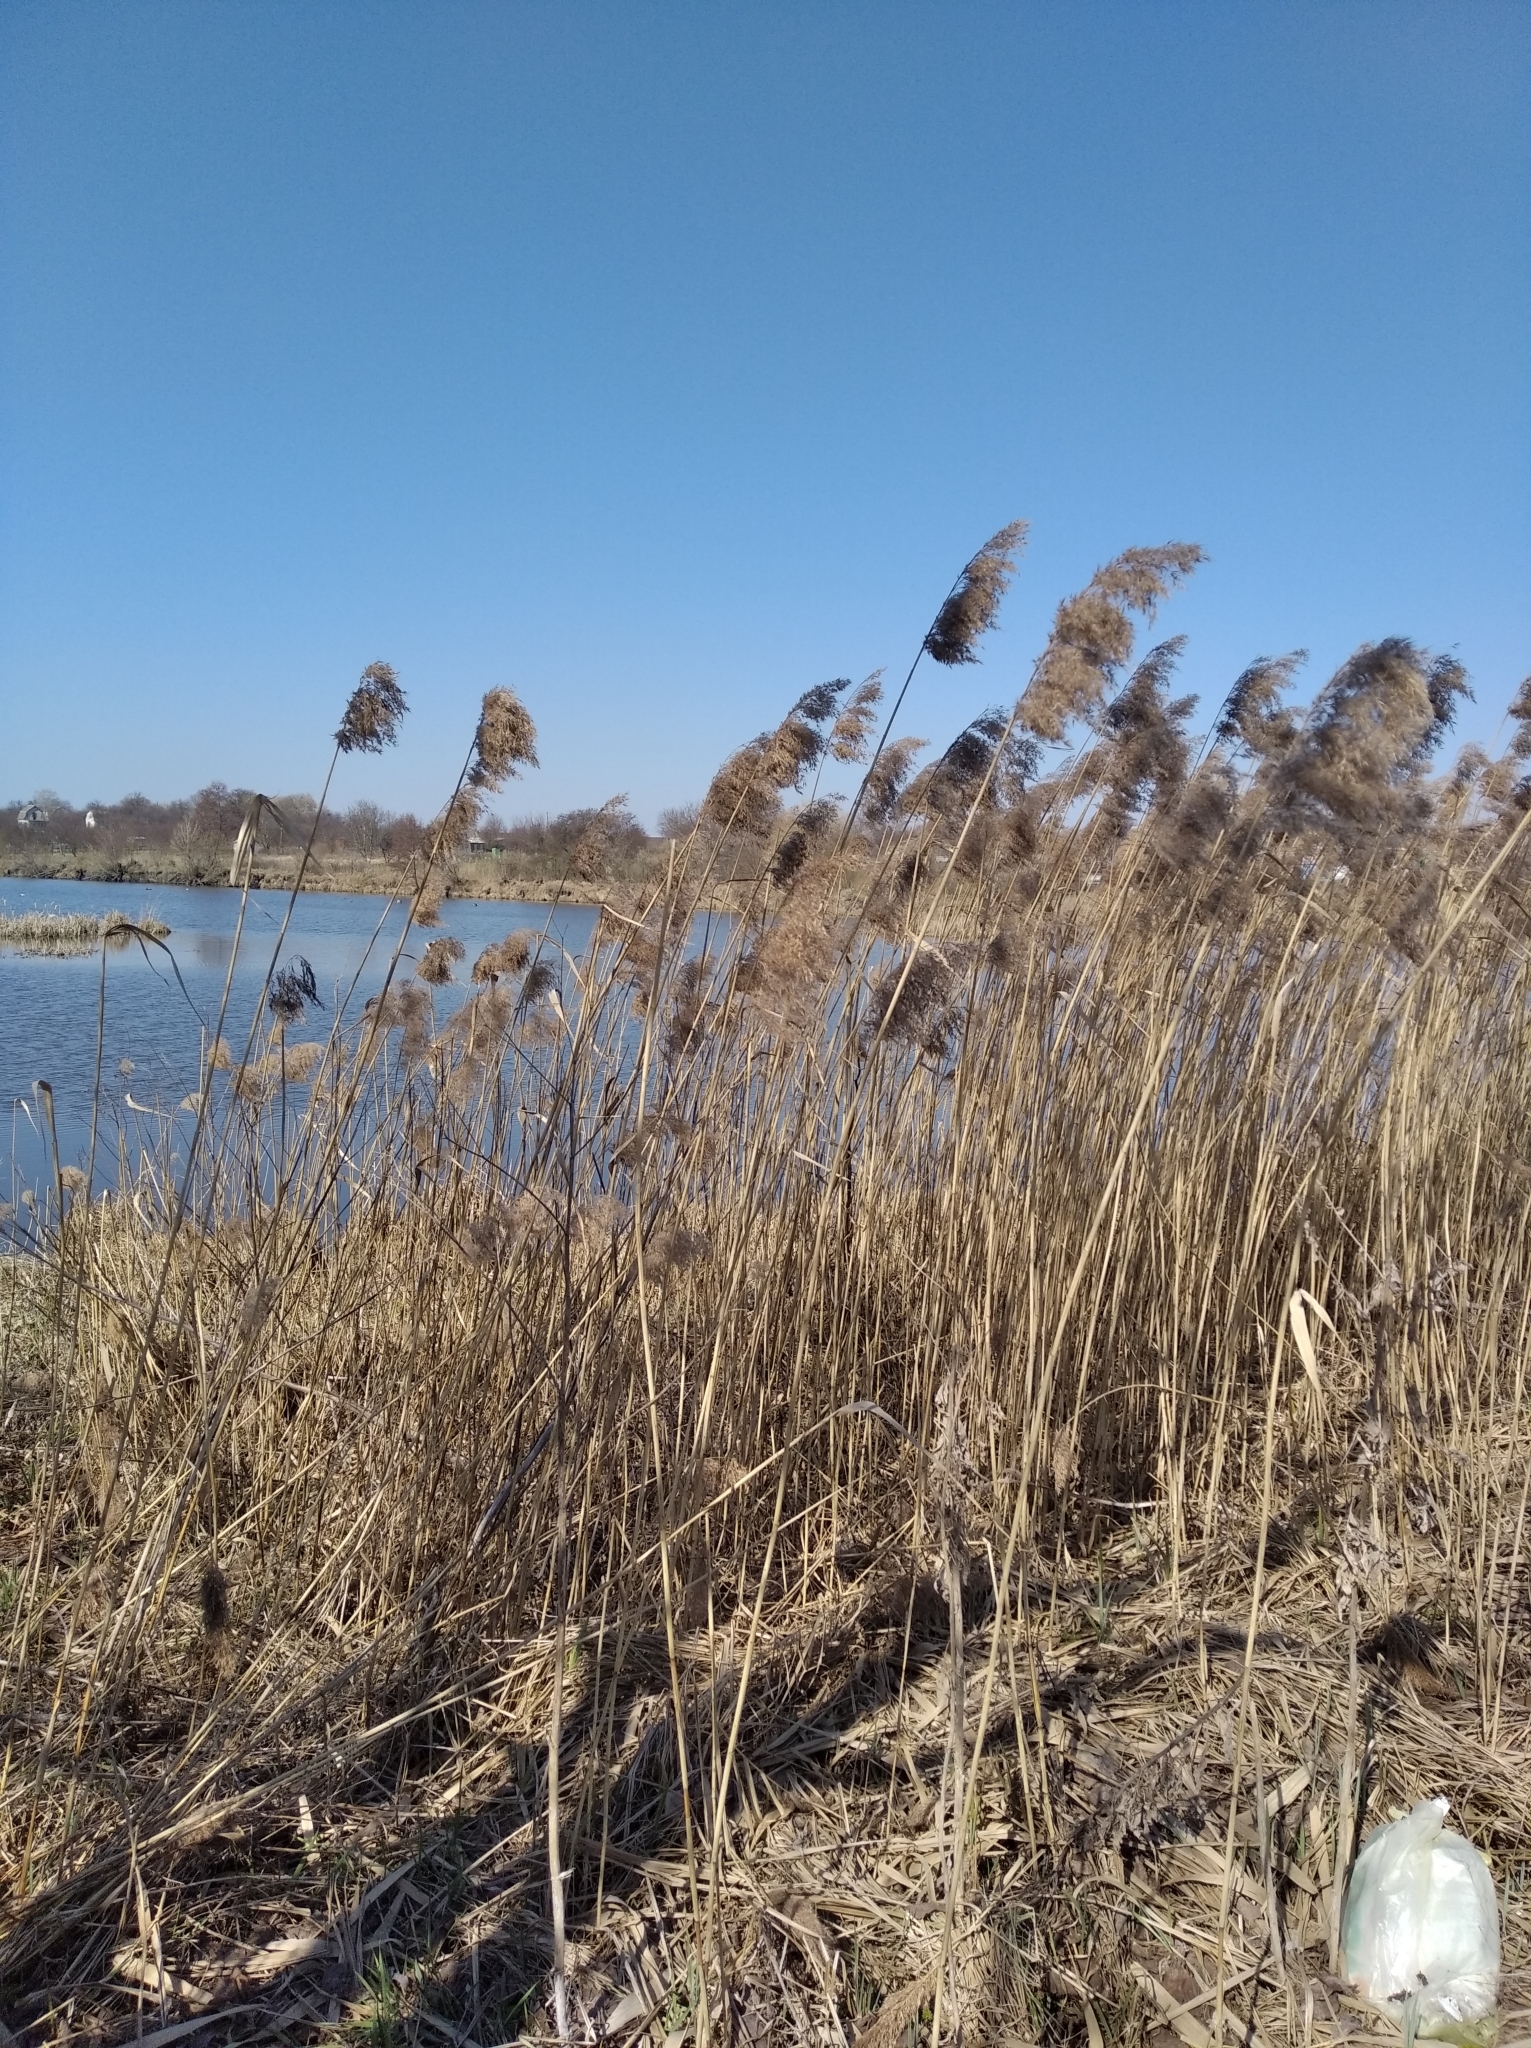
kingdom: Plantae
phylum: Tracheophyta
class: Liliopsida
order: Poales
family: Poaceae
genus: Phragmites
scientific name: Phragmites australis
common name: Common reed
